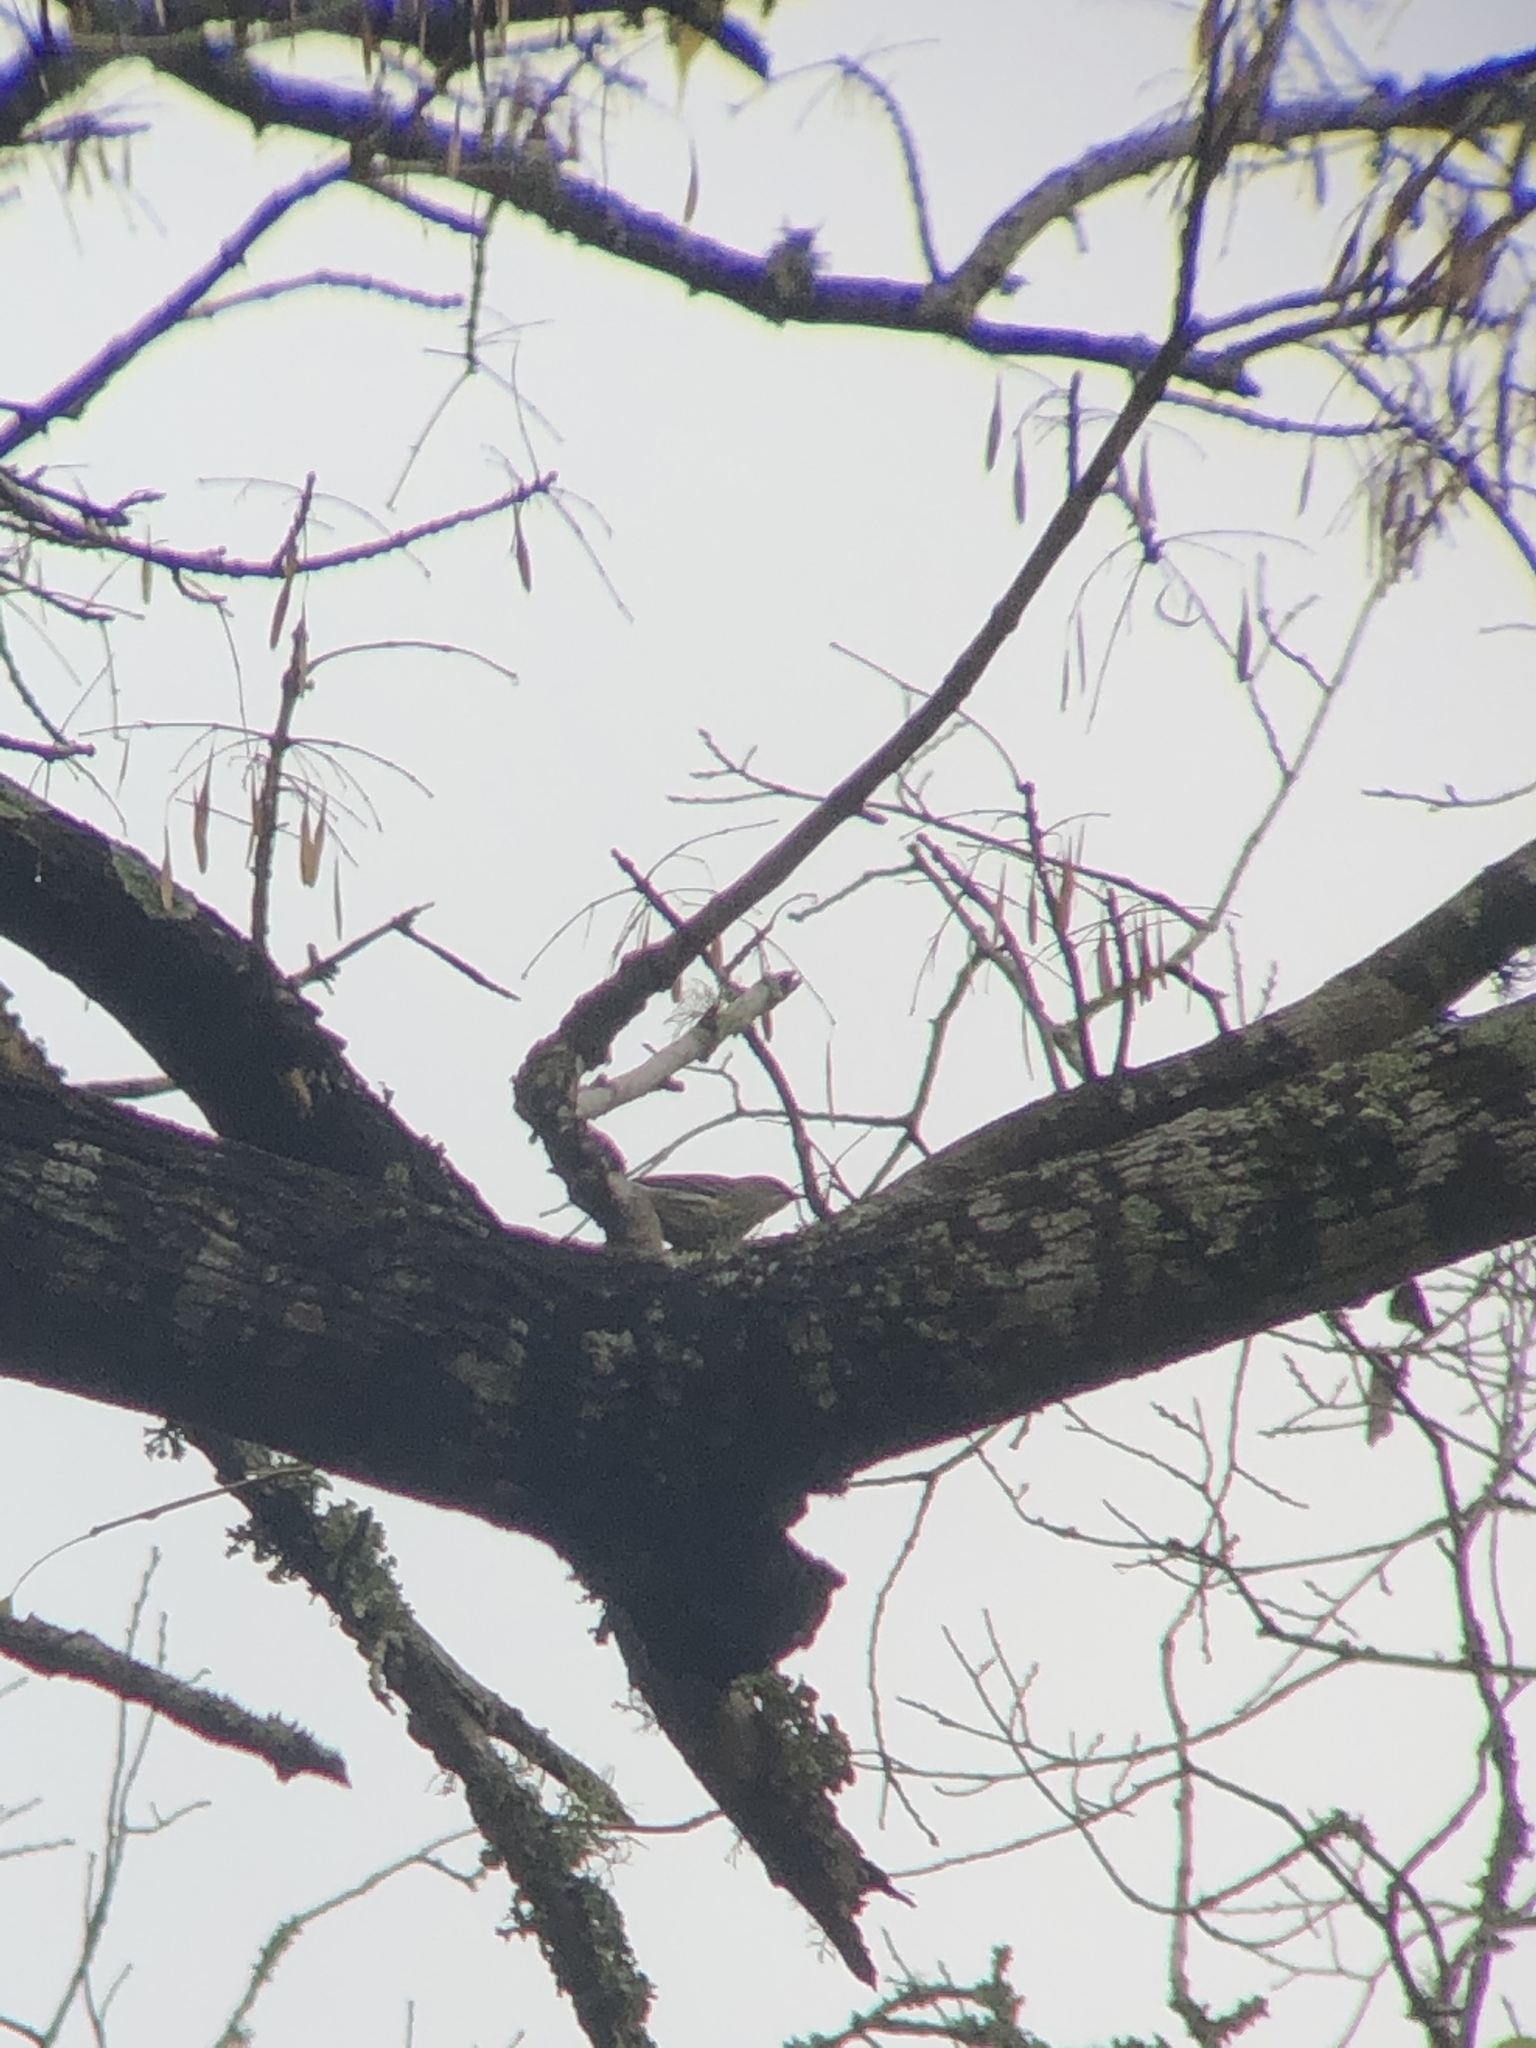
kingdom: Animalia
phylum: Chordata
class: Aves
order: Passeriformes
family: Parulidae
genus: Setophaga
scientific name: Setophaga coronata
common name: Myrtle warbler
